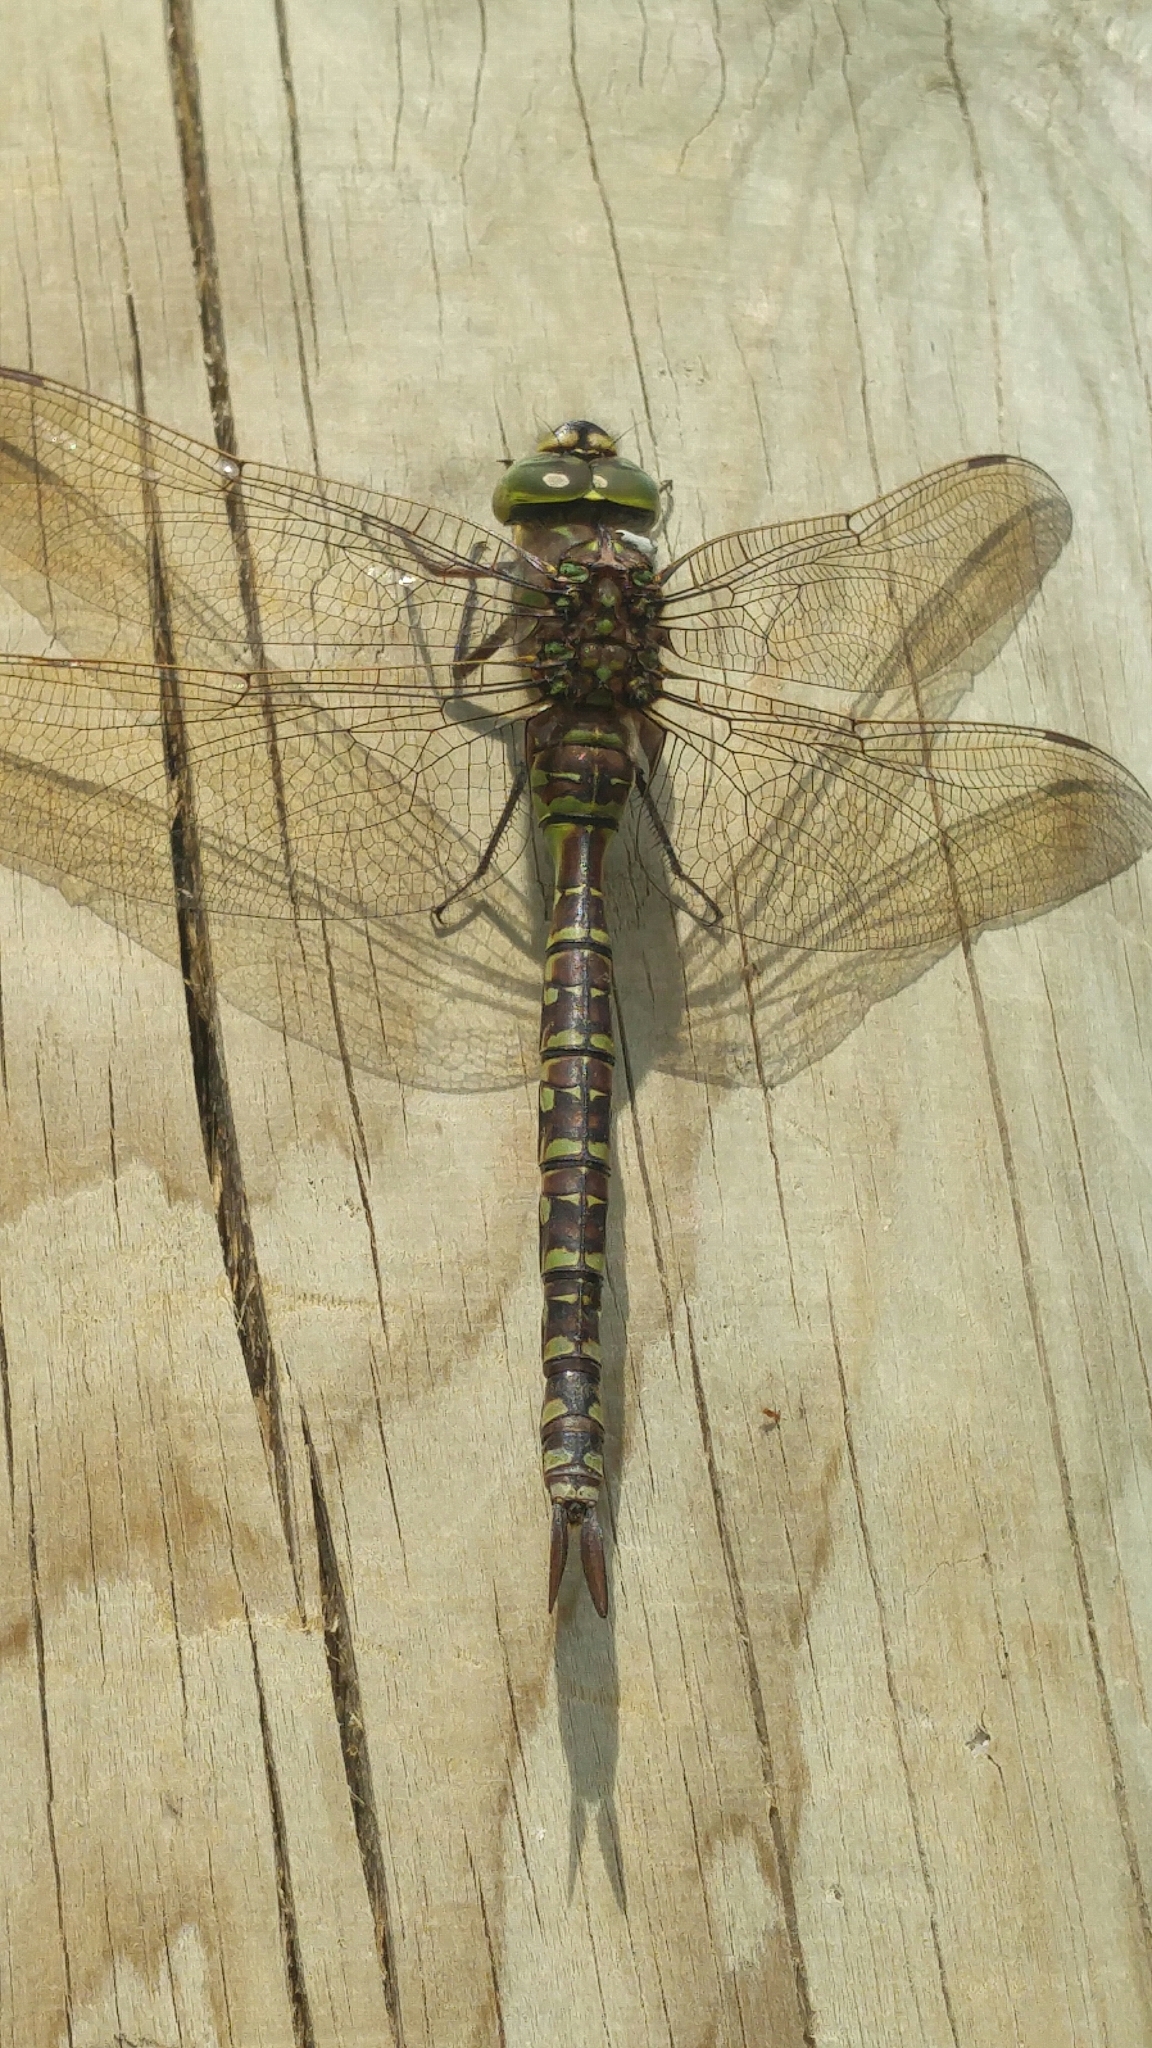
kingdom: Animalia
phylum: Arthropoda
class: Insecta
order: Odonata
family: Aeshnidae
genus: Aeshna
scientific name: Aeshna eremita
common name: Lake darner
